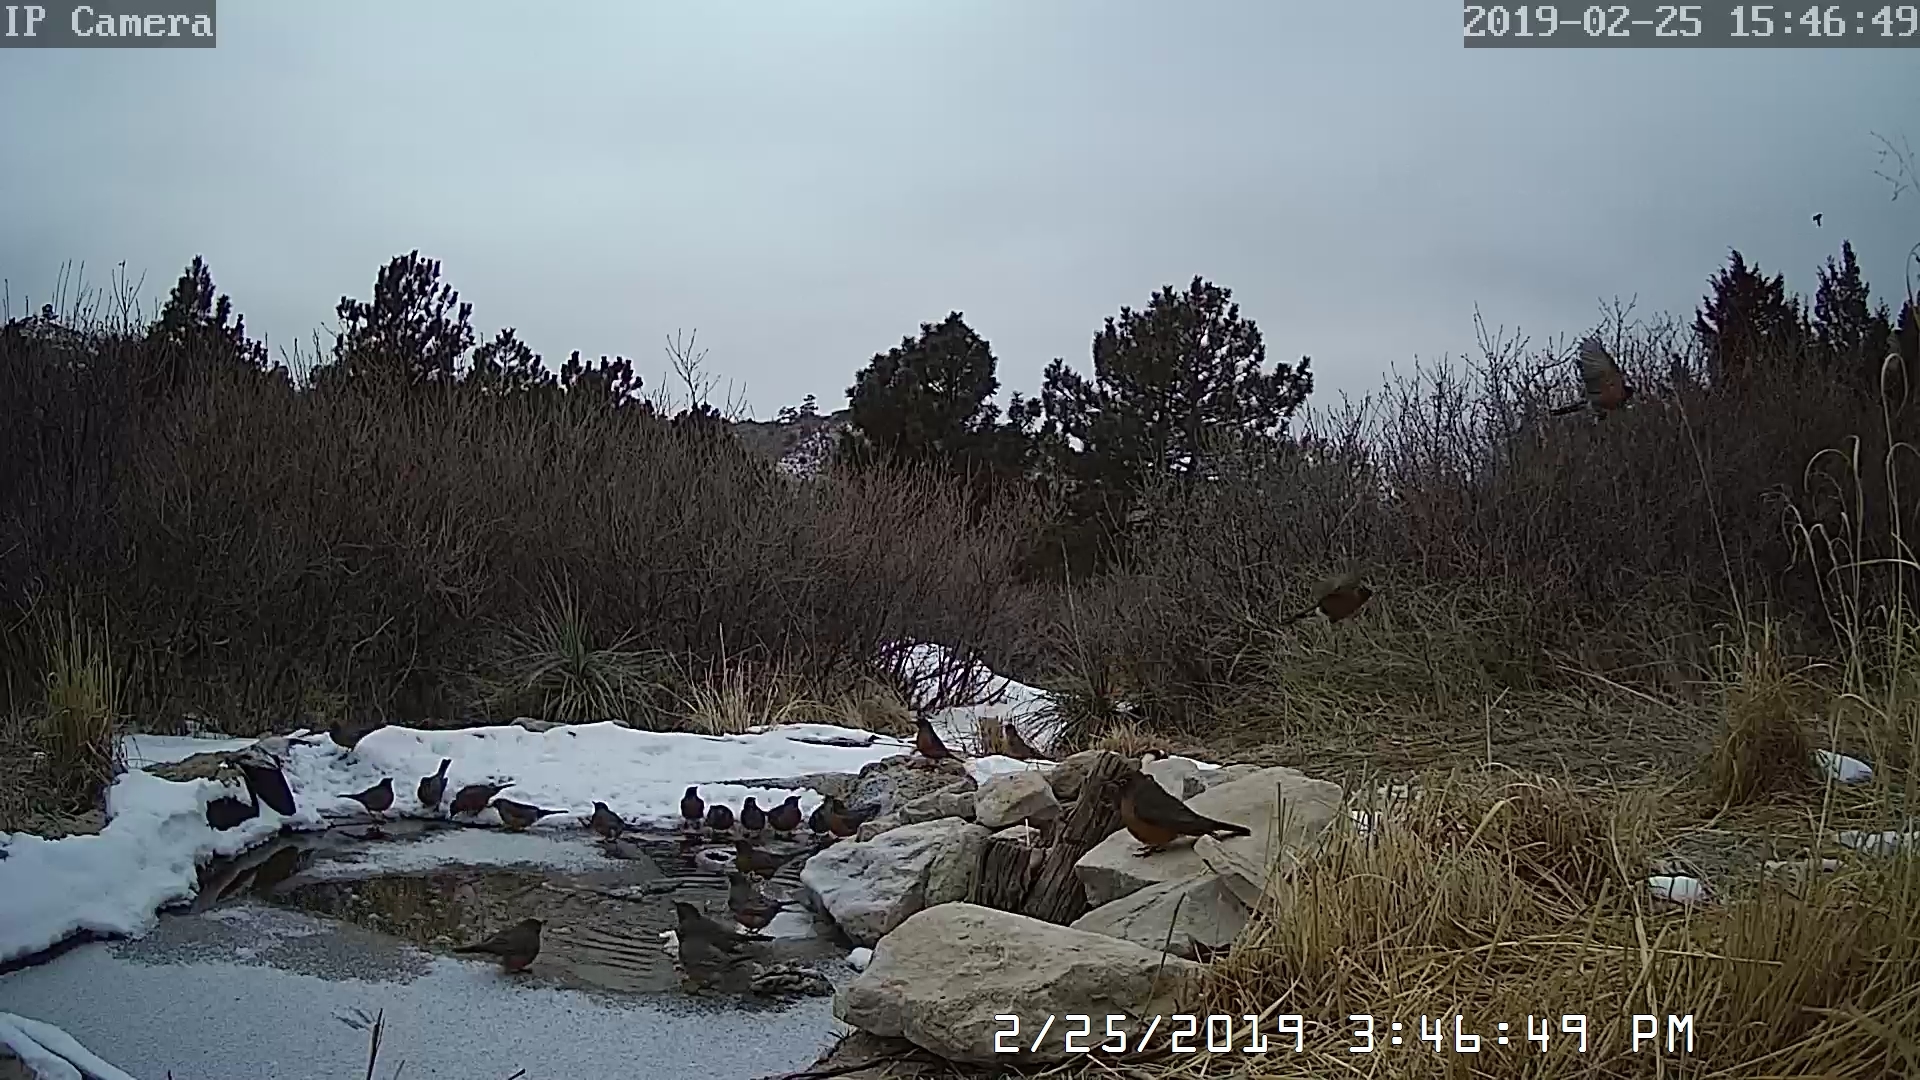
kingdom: Animalia
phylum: Chordata
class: Aves
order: Passeriformes
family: Turdidae
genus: Turdus
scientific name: Turdus migratorius
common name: American robin
